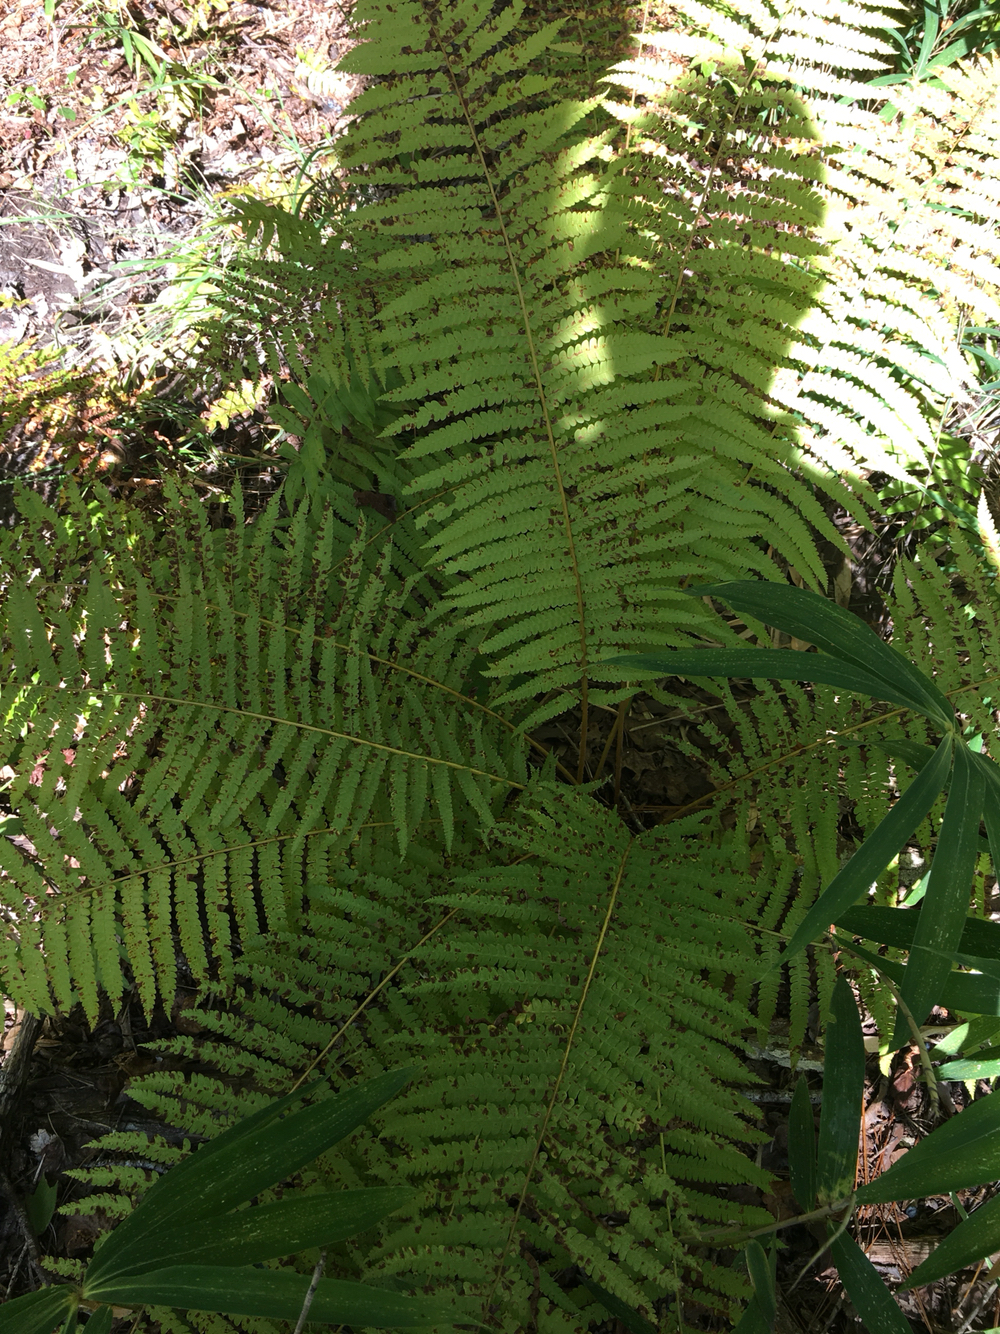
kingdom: Plantae
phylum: Tracheophyta
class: Polypodiopsida
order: Osmundales
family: Osmundaceae
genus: Osmundastrum
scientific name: Osmundastrum cinnamomeum
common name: Cinnamon fern
